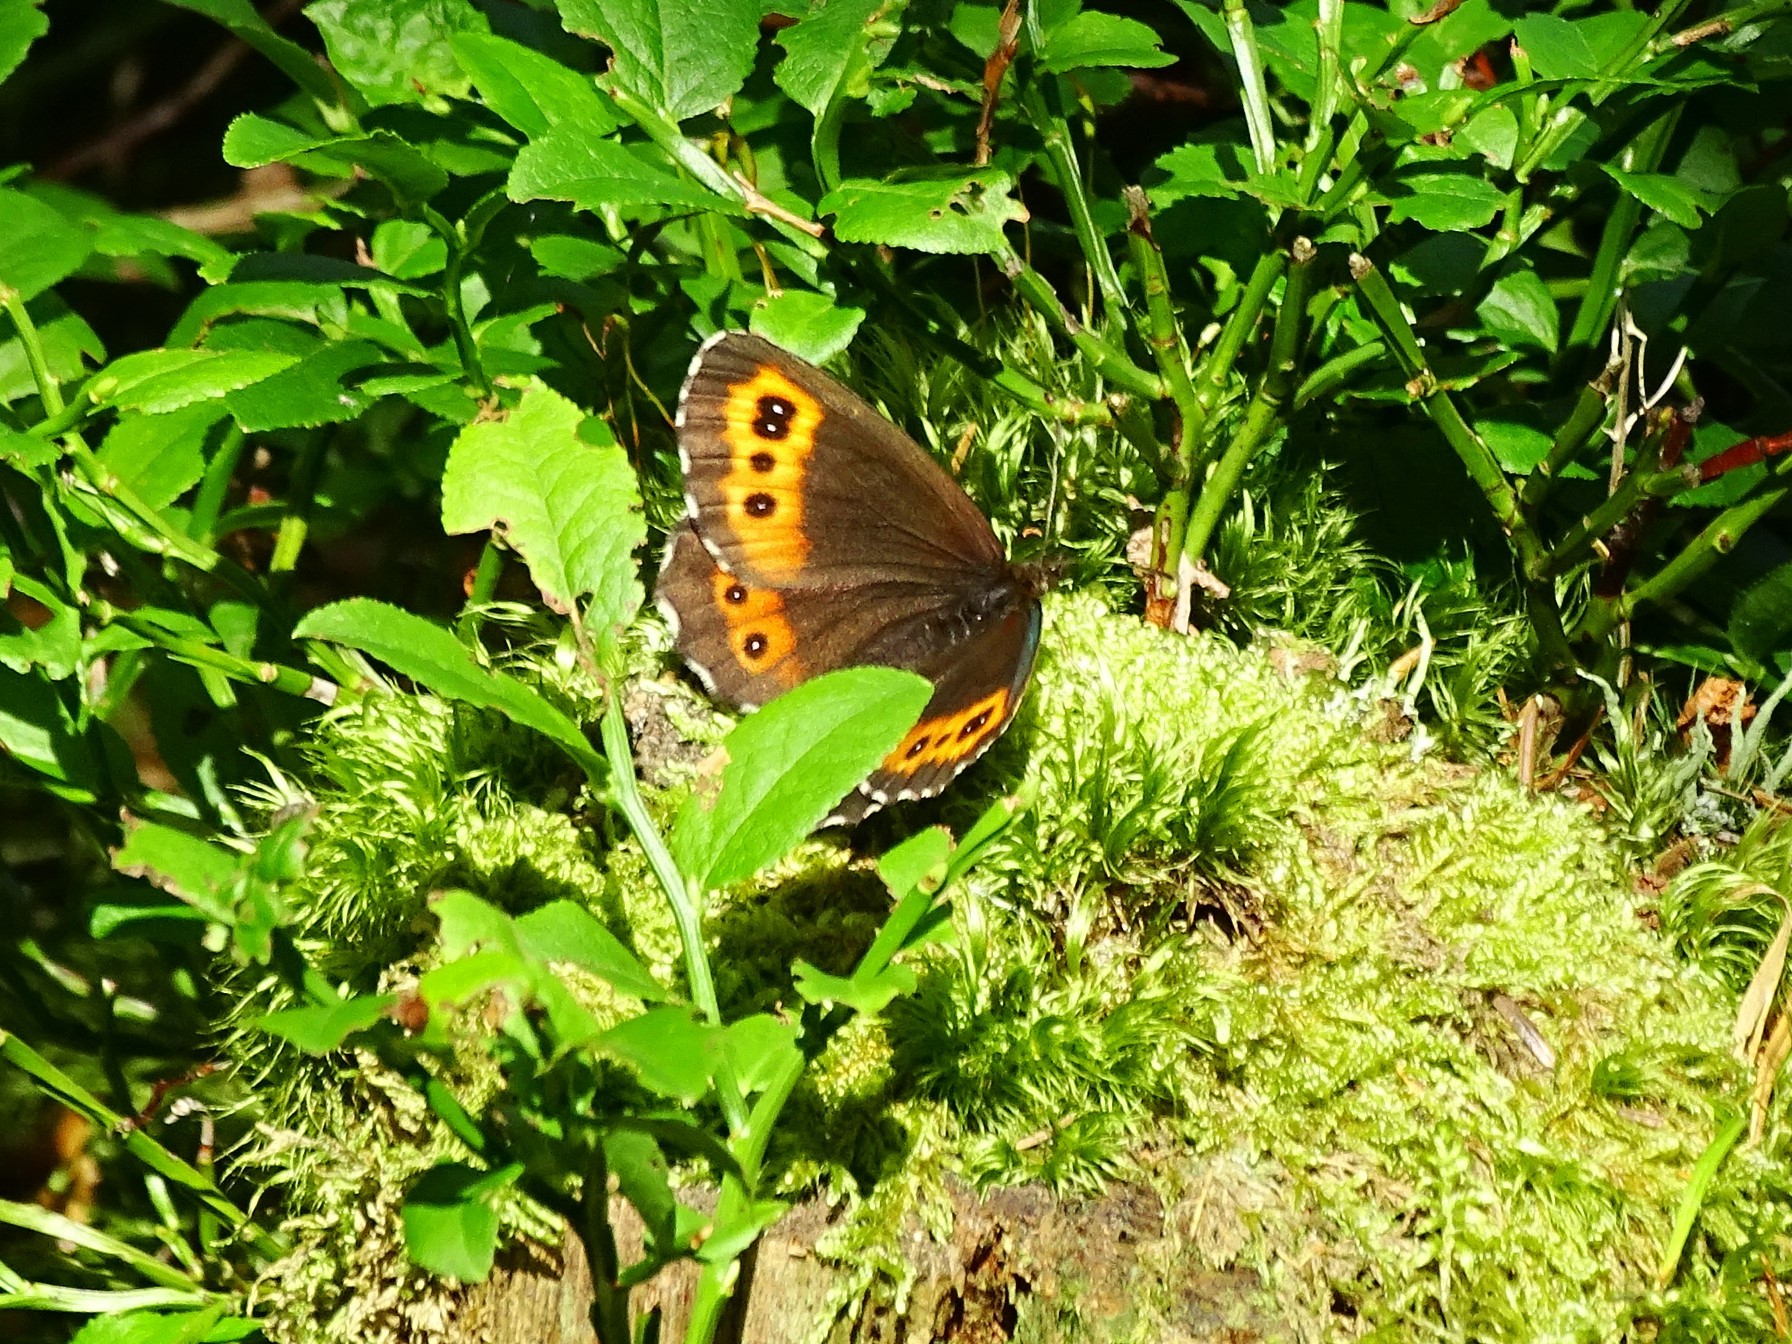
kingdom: Animalia
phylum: Arthropoda
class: Insecta
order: Lepidoptera
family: Nymphalidae
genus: Erebia
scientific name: Erebia ligea
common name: Arran brown
